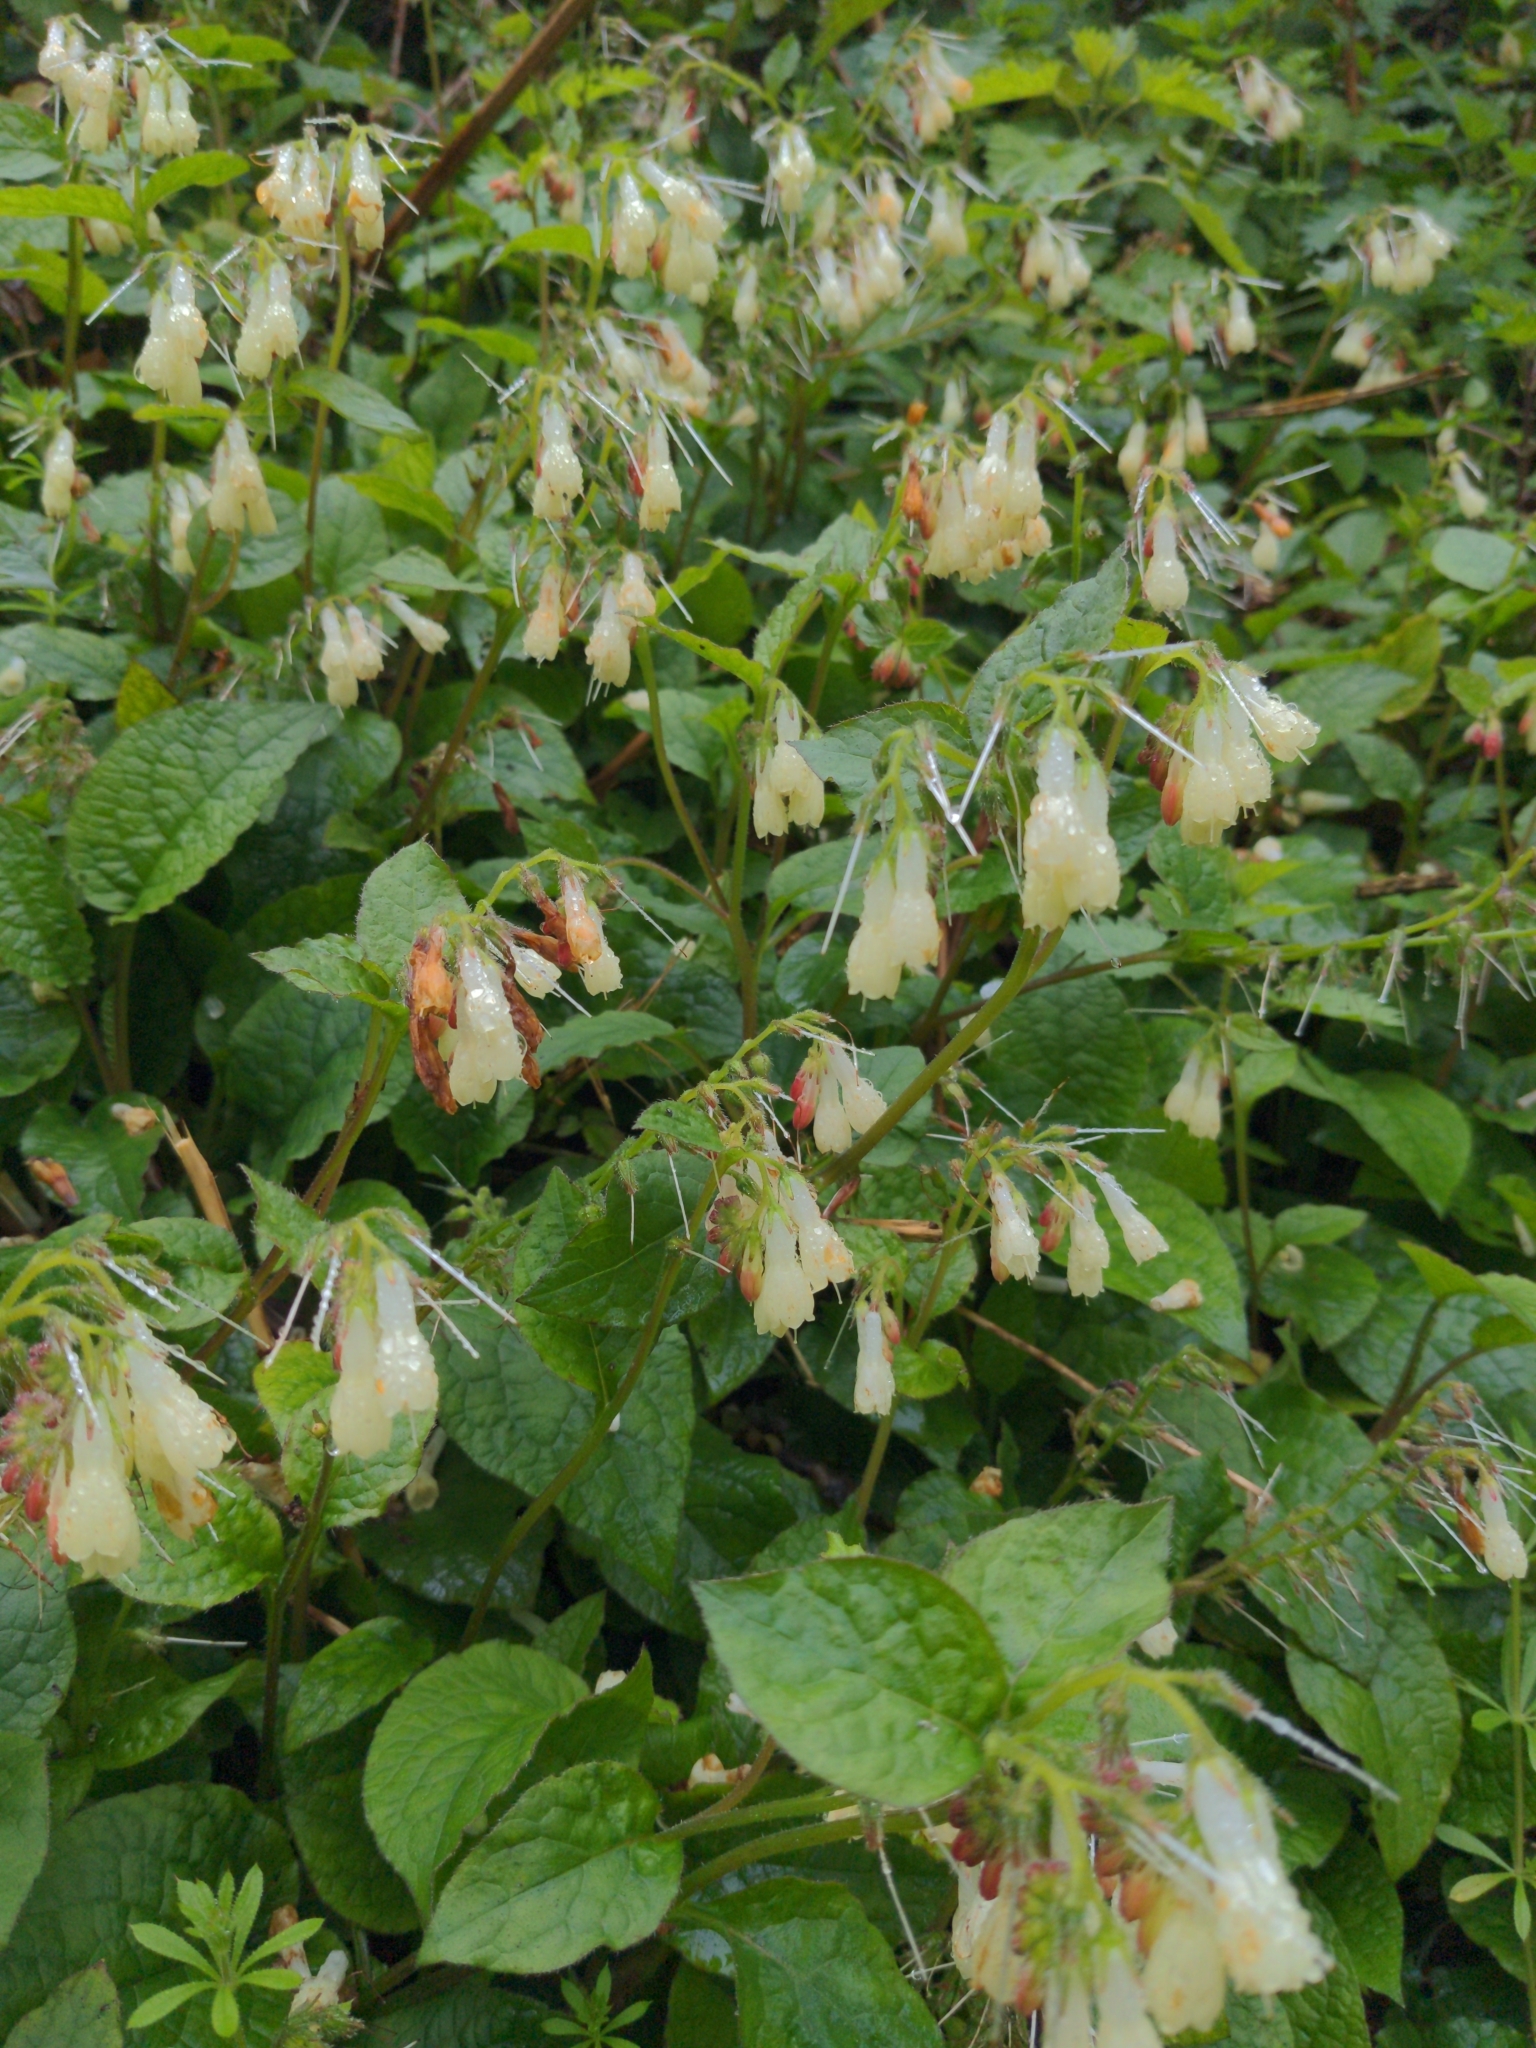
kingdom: Plantae
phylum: Tracheophyta
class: Magnoliopsida
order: Boraginales
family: Boraginaceae
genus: Symphytum
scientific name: Symphytum grandiflorum
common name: Creeping comfrey
